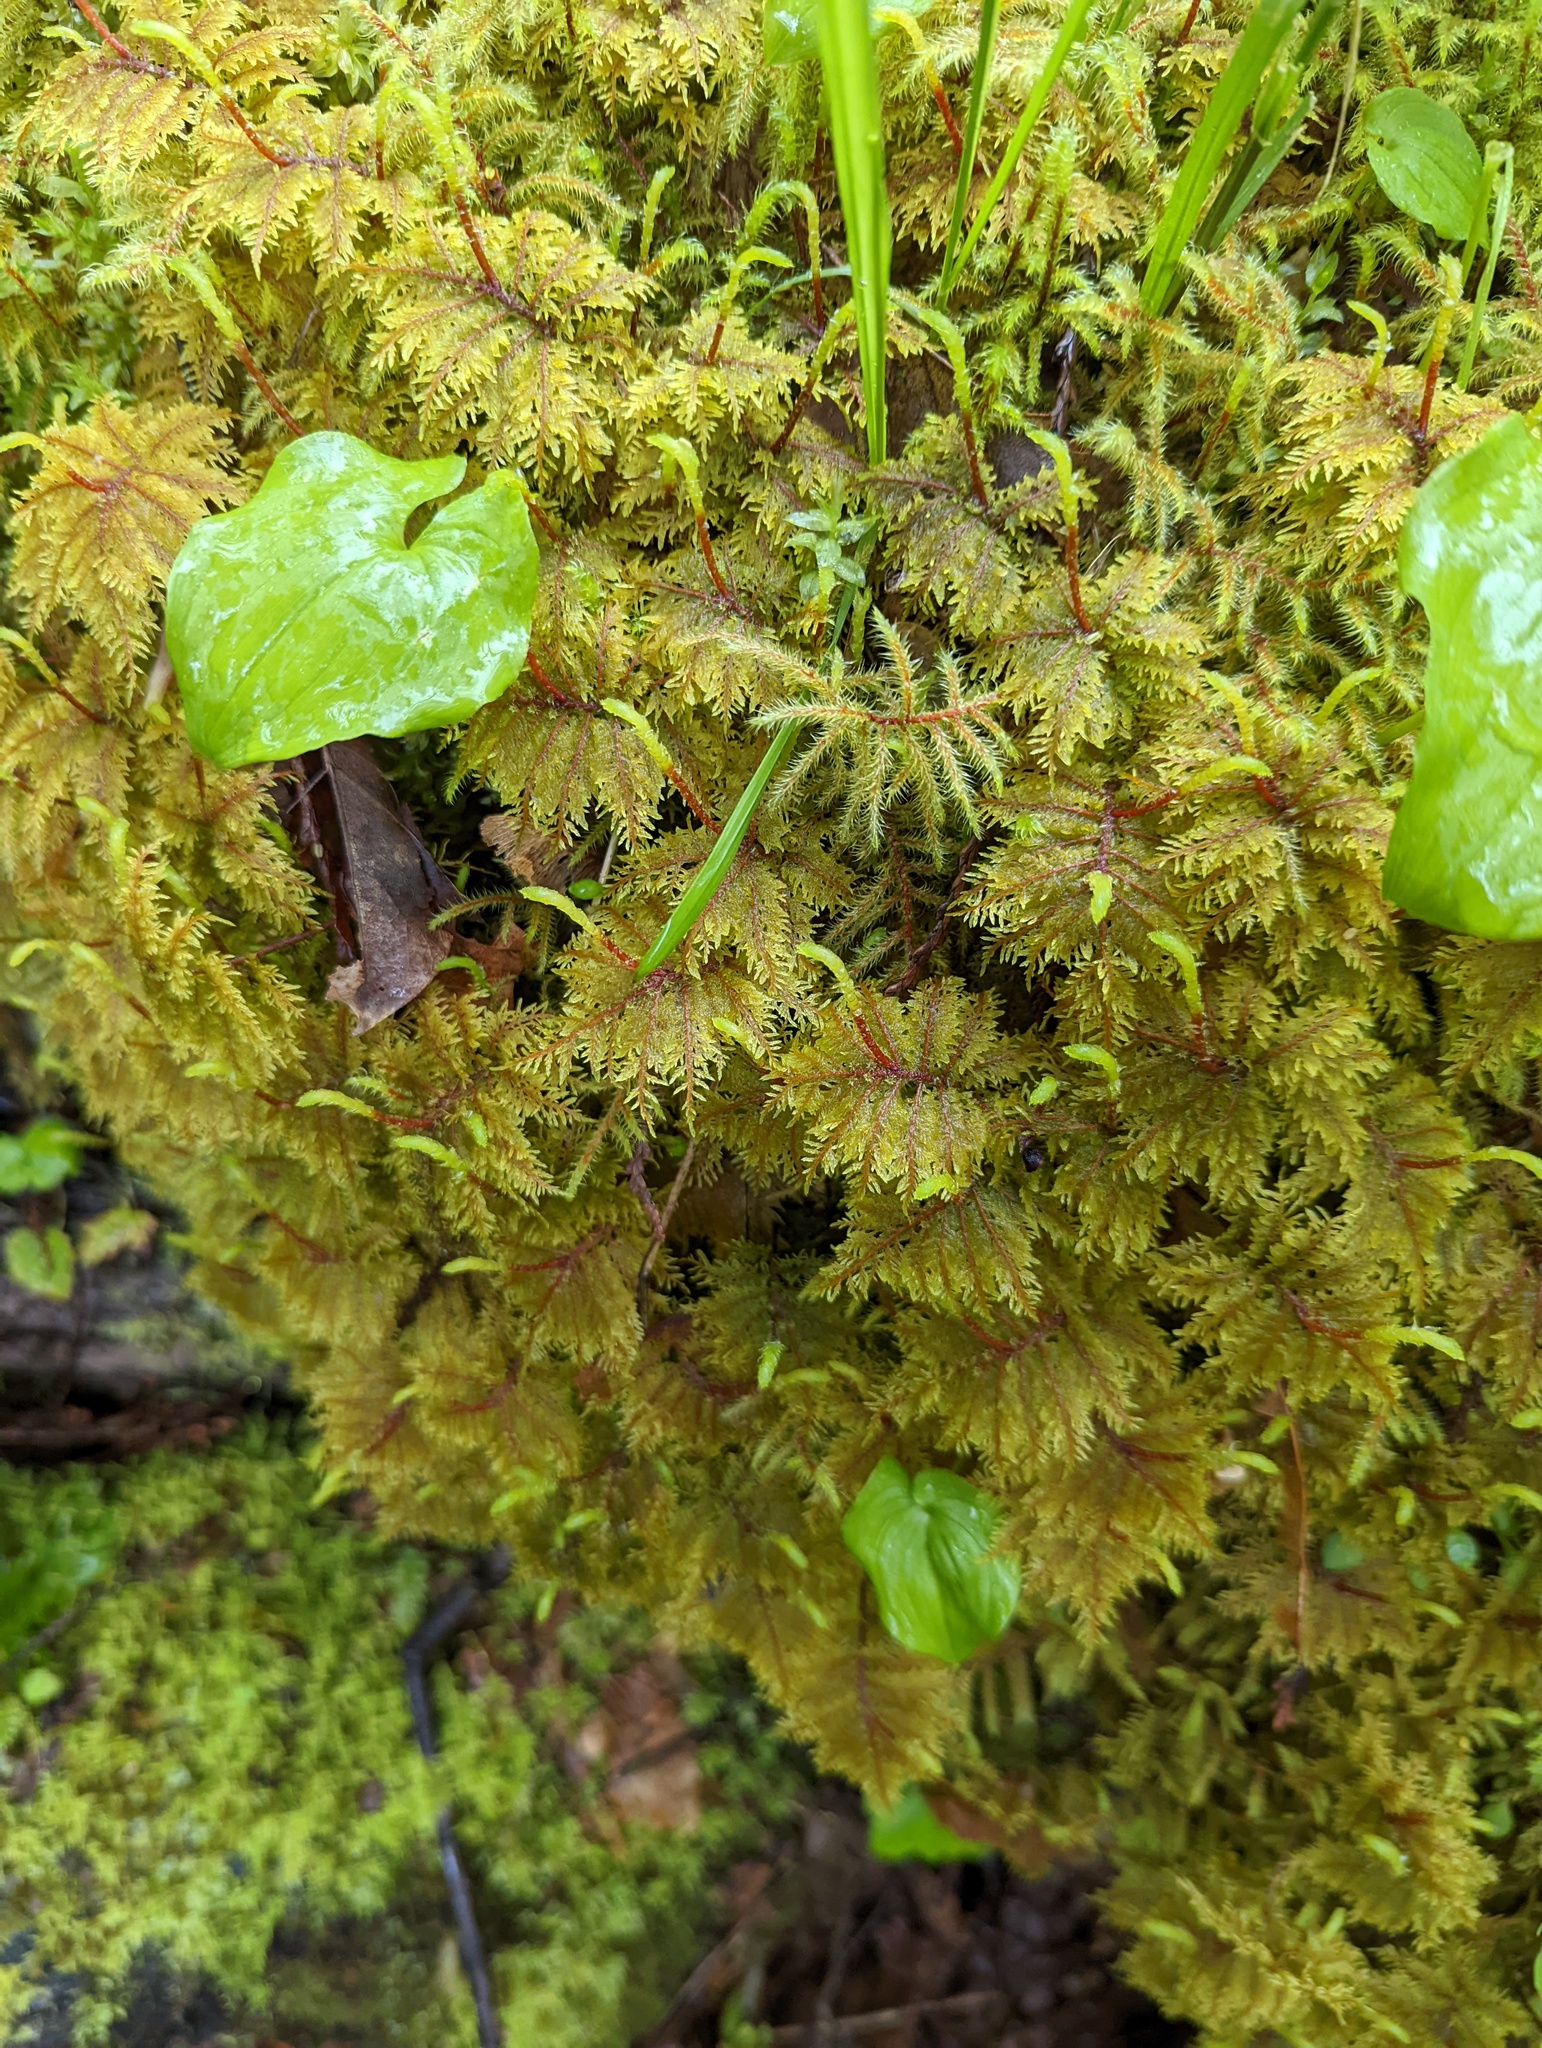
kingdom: Plantae
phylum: Bryophyta
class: Bryopsida
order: Hypnales
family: Hylocomiaceae
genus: Hylocomium
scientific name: Hylocomium splendens
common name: Stairstep moss
